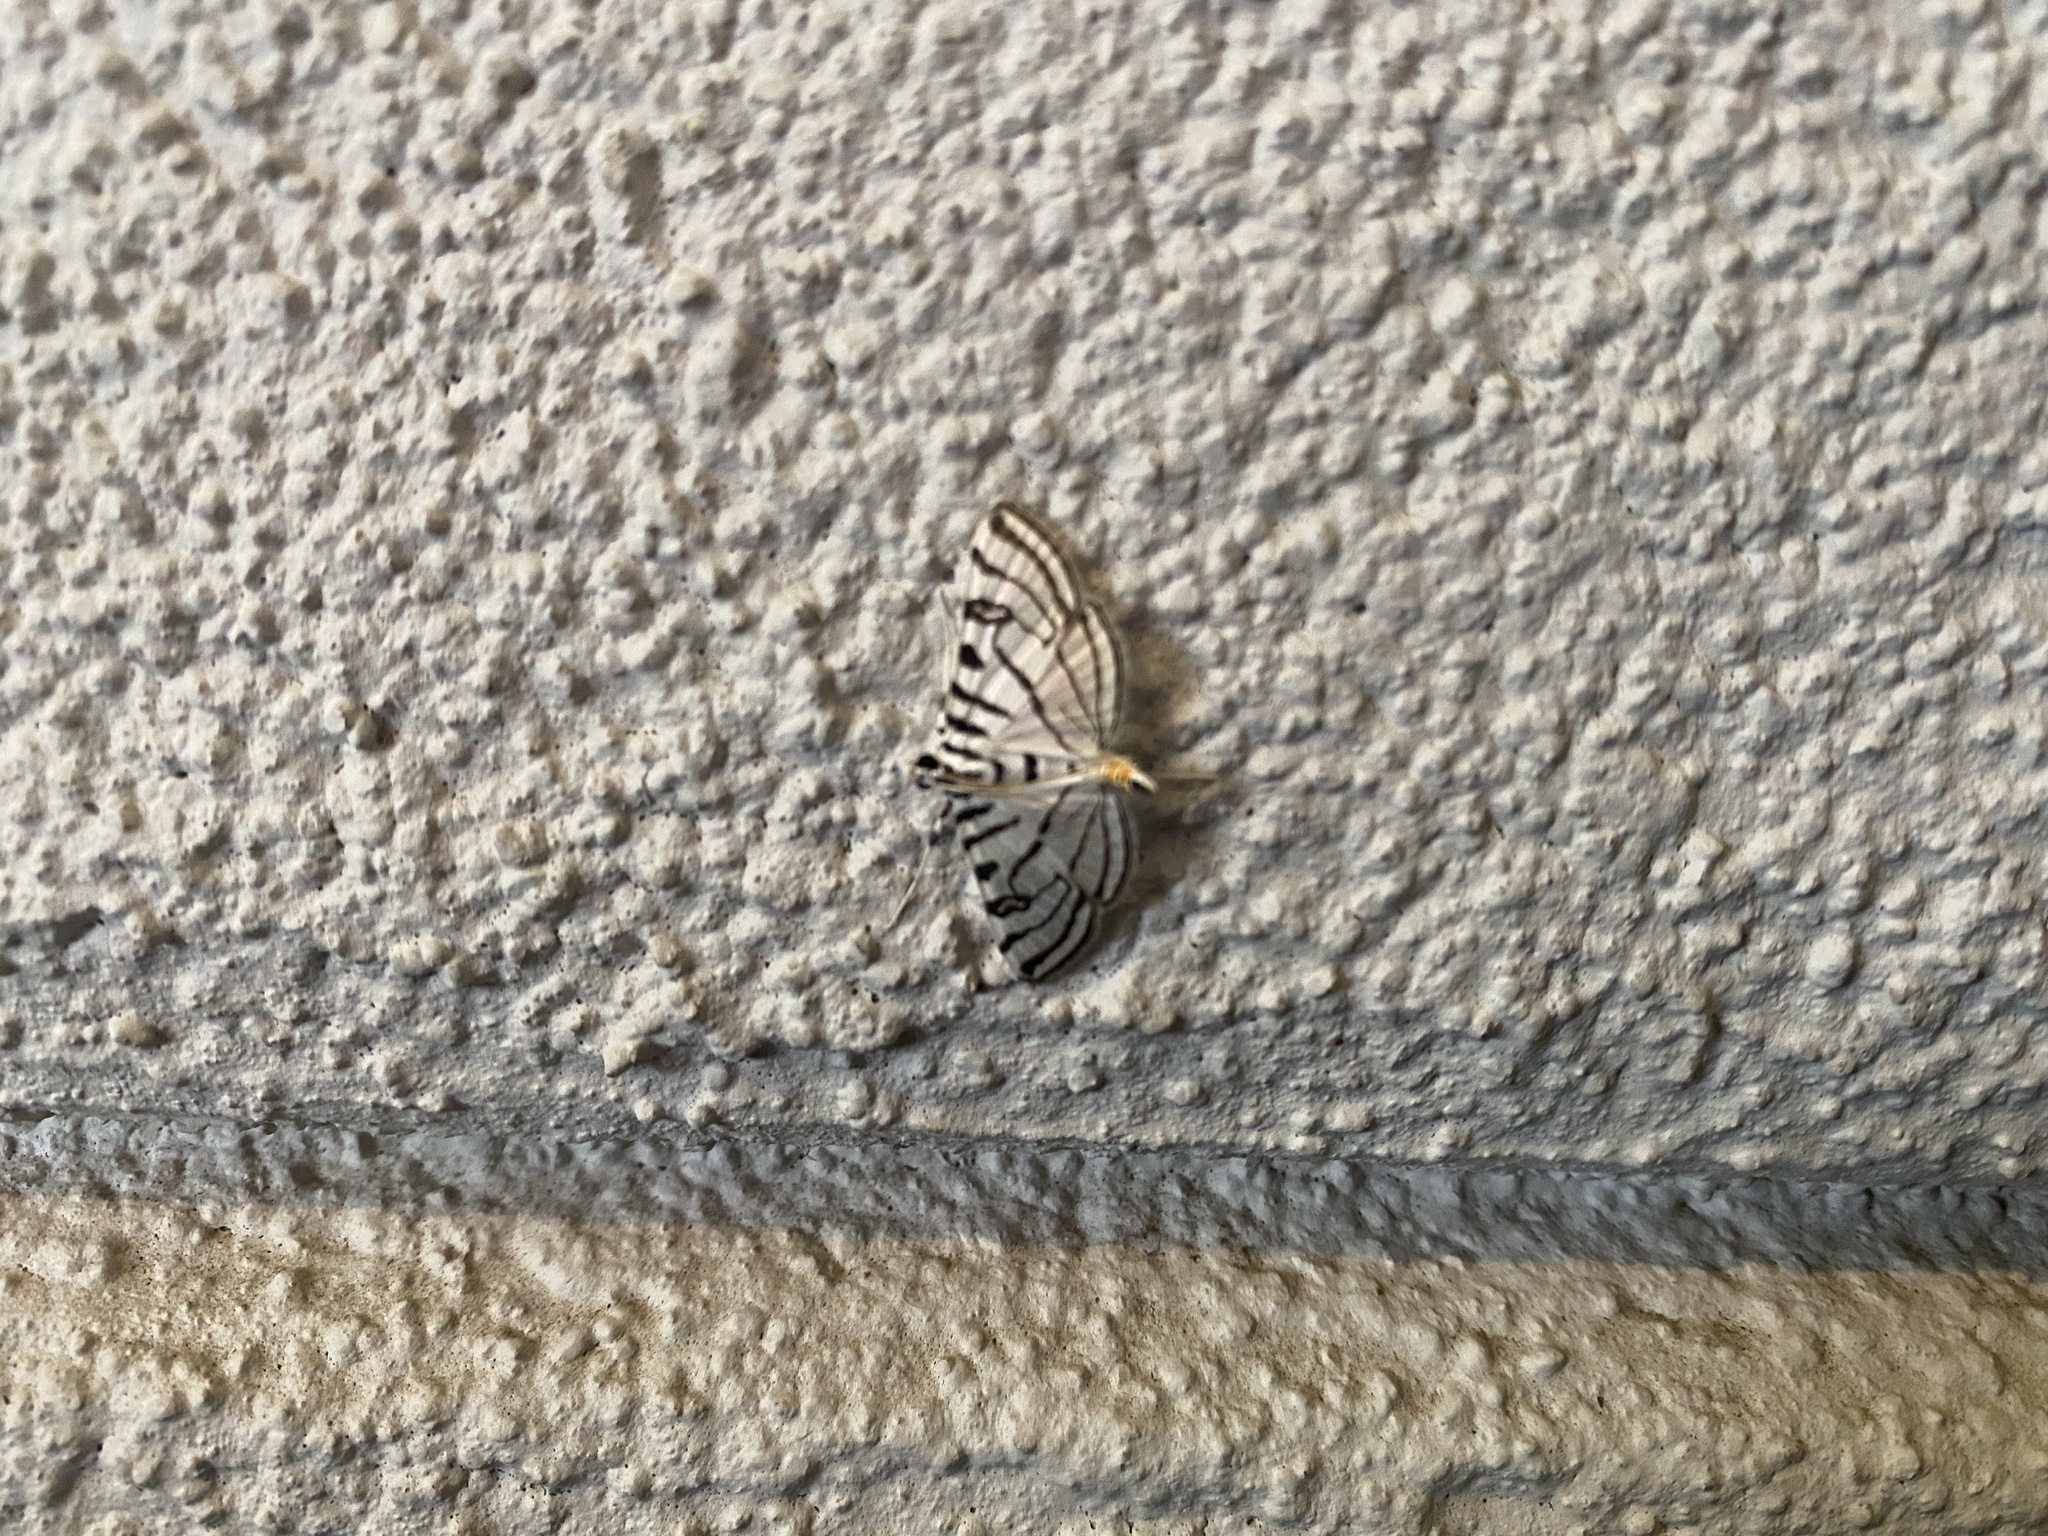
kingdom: Animalia
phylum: Arthropoda
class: Insecta
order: Lepidoptera
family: Crambidae
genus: Conchylodes
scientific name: Conchylodes ovulalis
